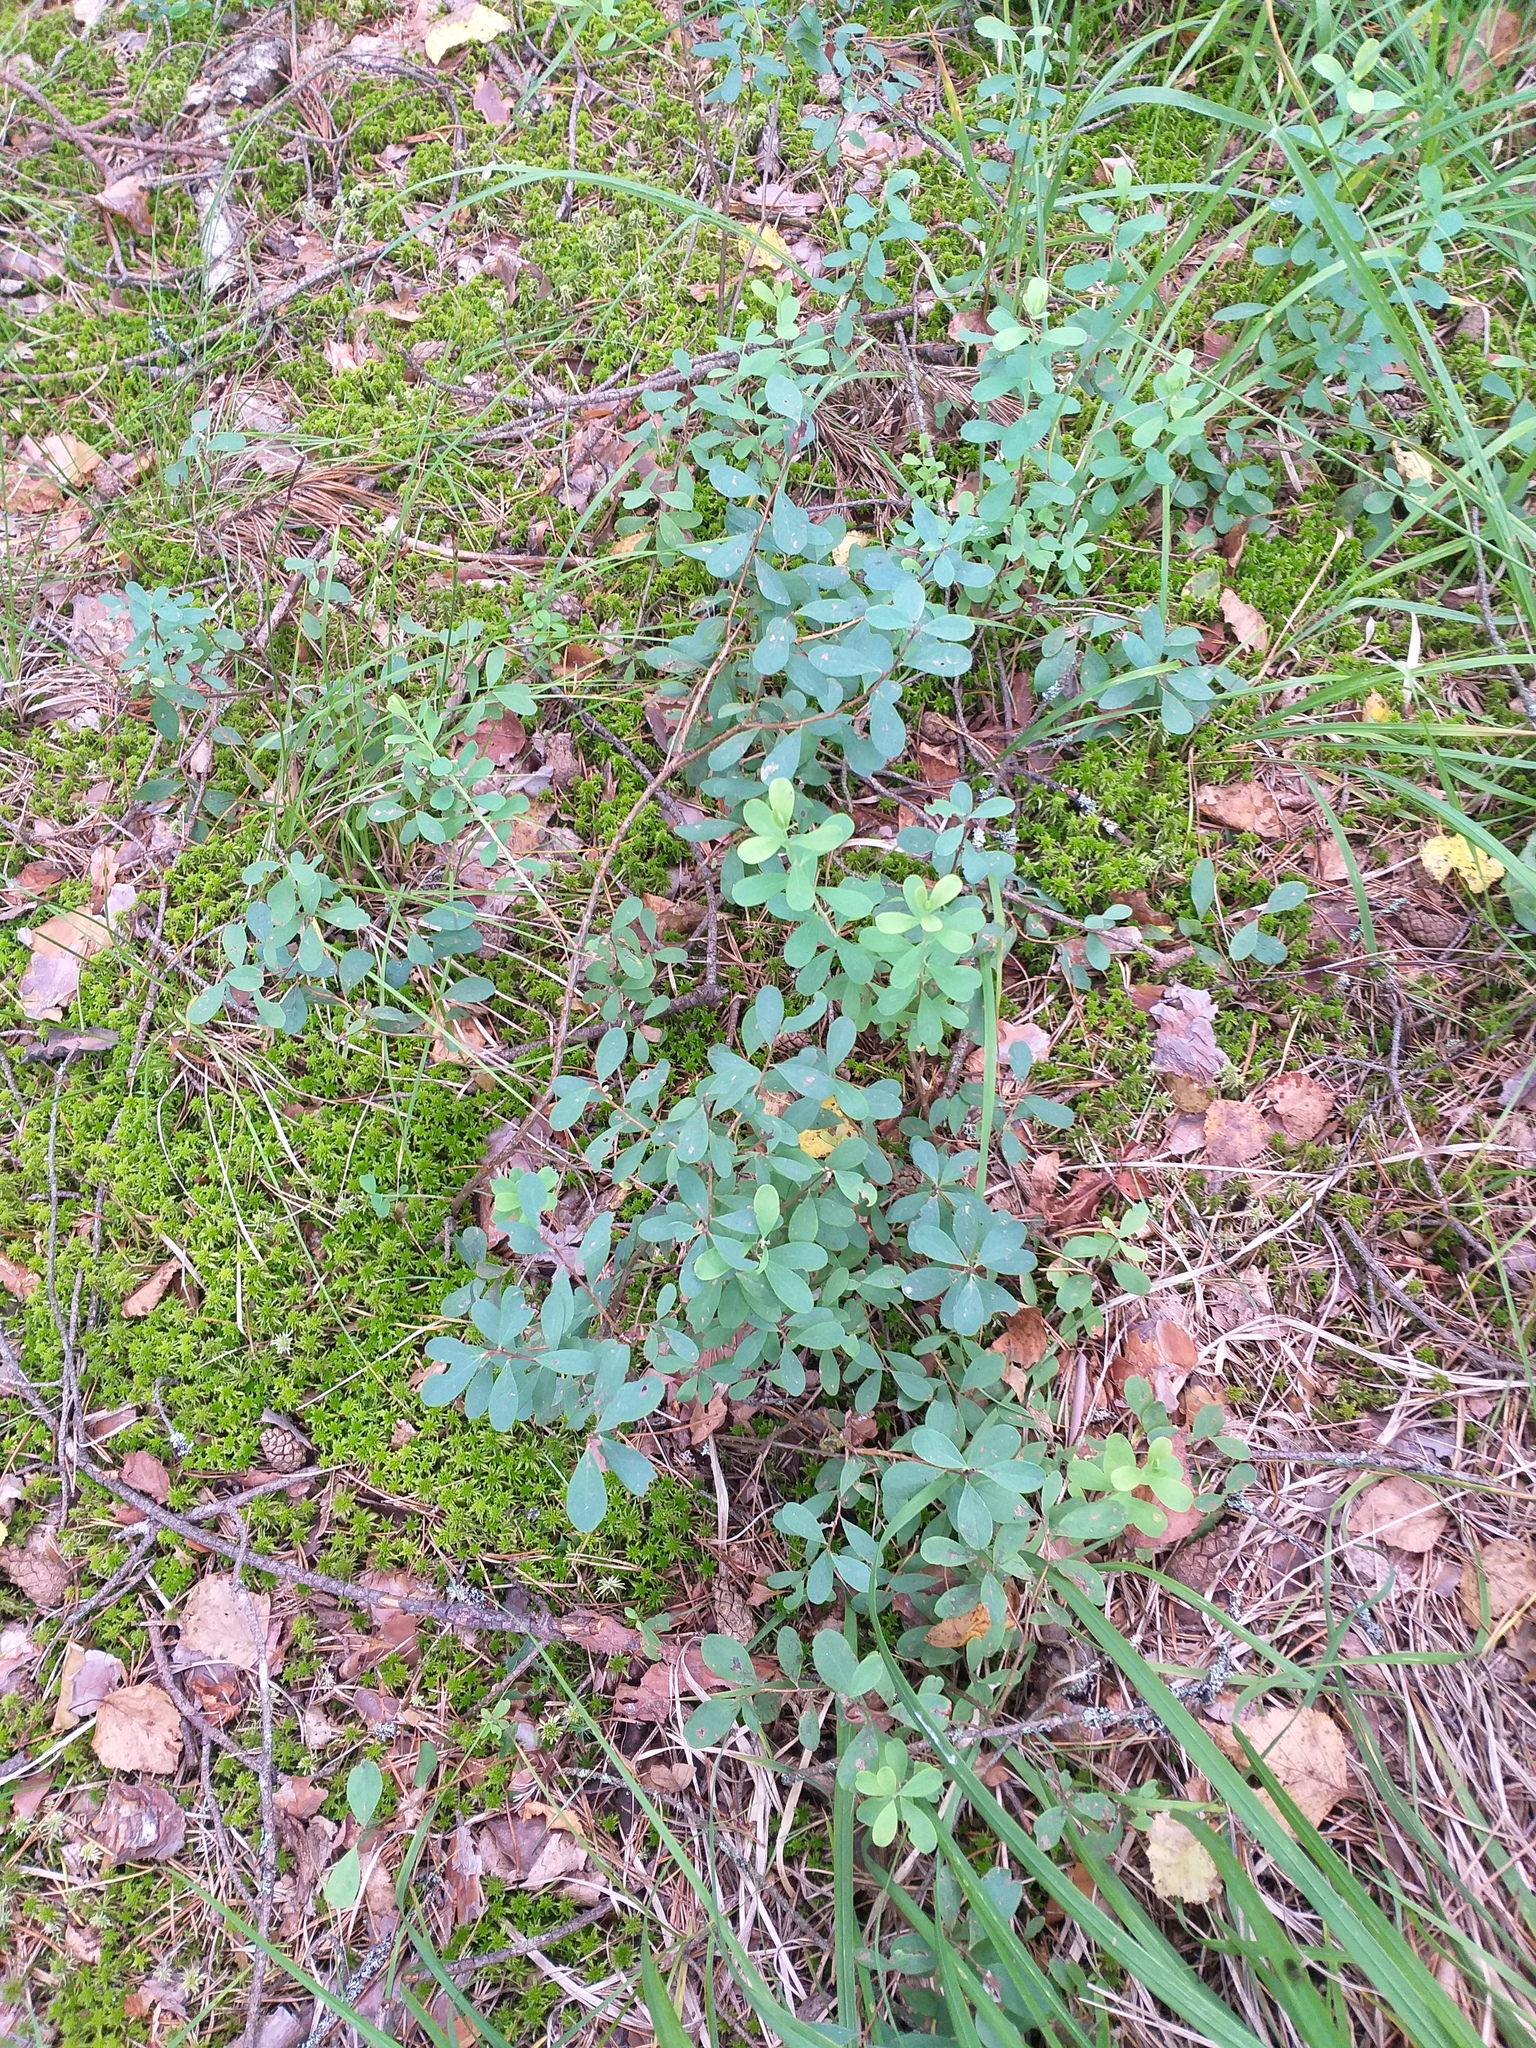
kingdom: Plantae
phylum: Tracheophyta
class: Magnoliopsida
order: Ericales
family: Ericaceae
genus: Vaccinium
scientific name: Vaccinium uliginosum
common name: Bog bilberry
